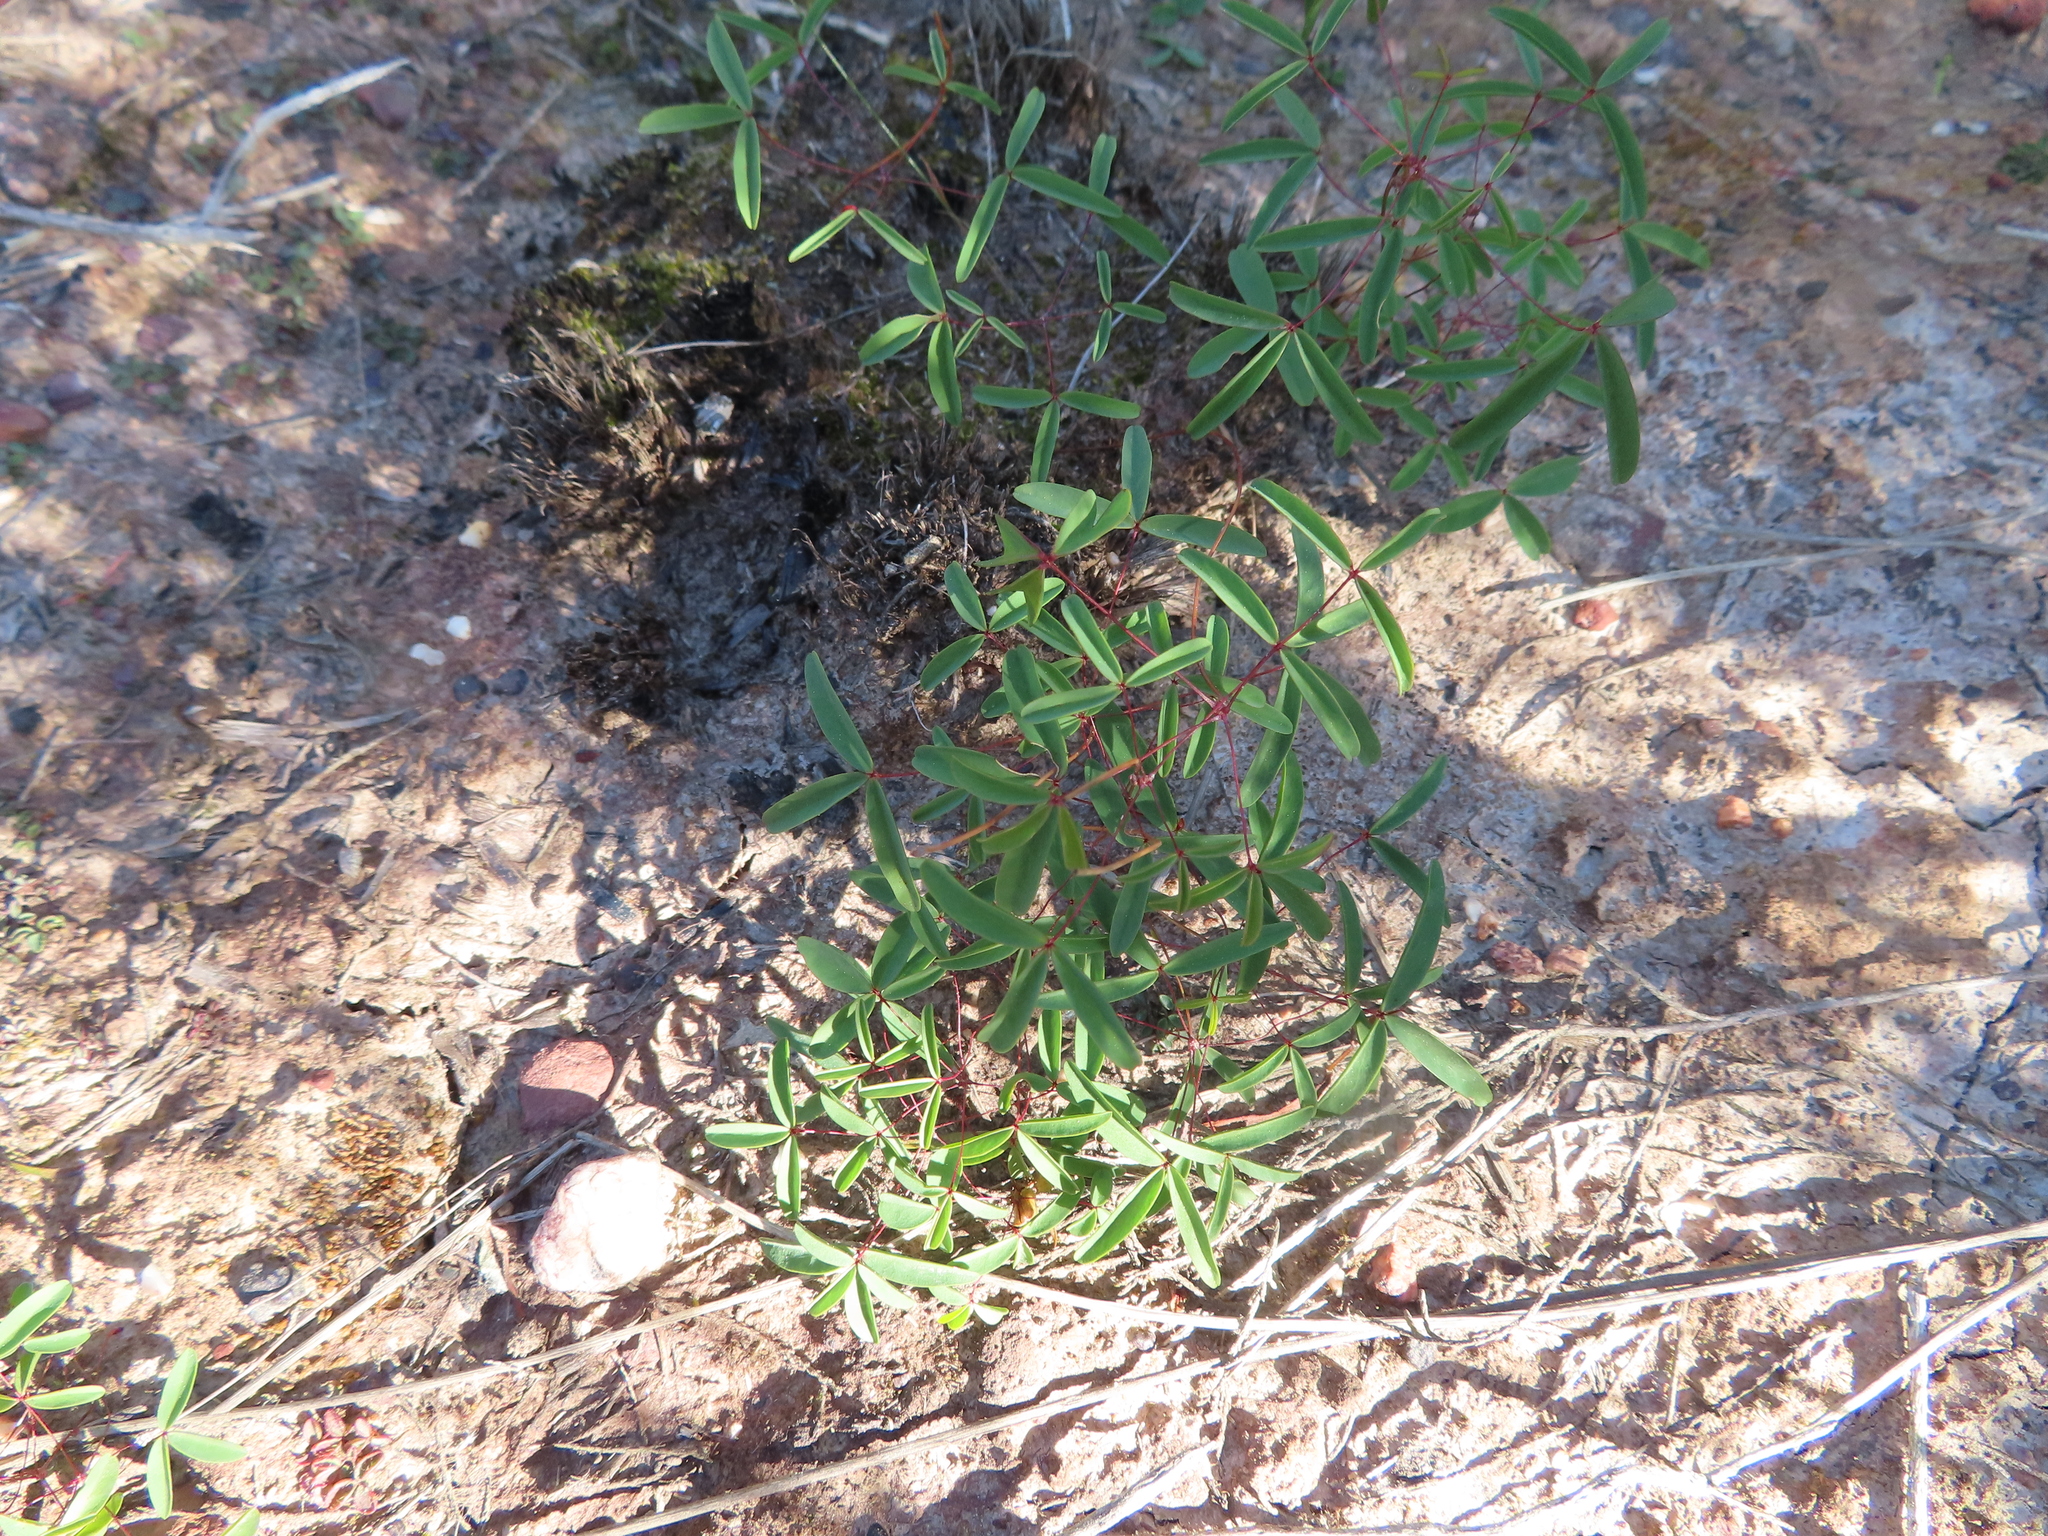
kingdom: Plantae
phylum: Tracheophyta
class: Magnoliopsida
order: Oxalidales
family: Oxalidaceae
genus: Oxalis
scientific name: Oxalis duriuscula
